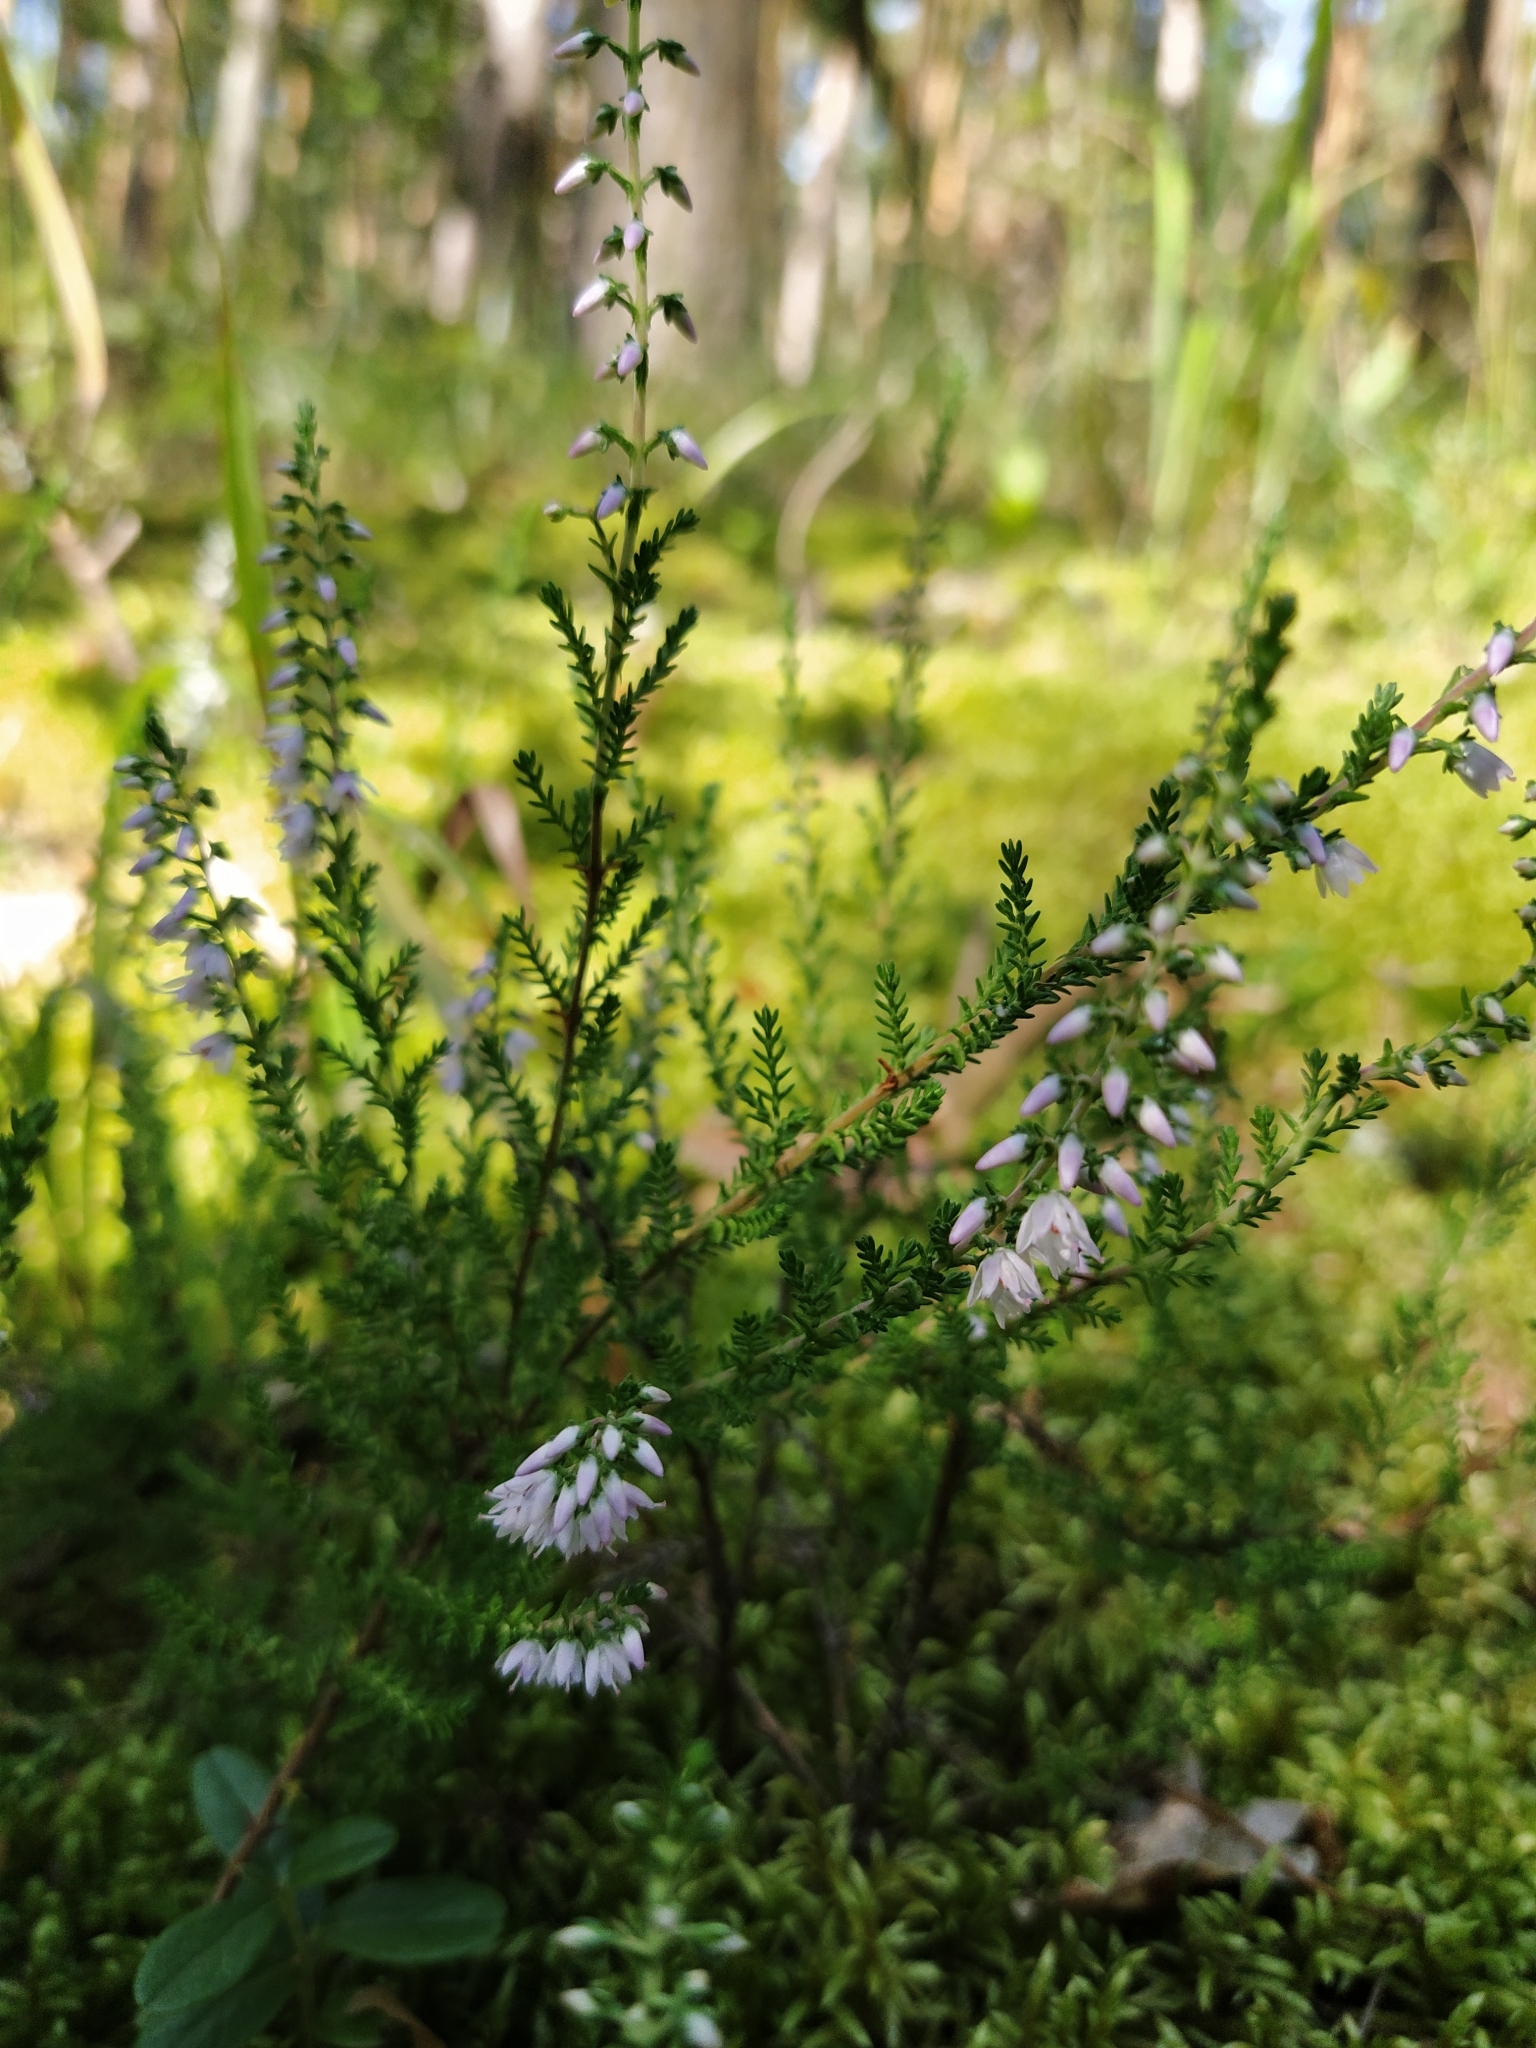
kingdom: Plantae
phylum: Tracheophyta
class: Magnoliopsida
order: Ericales
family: Ericaceae
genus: Calluna
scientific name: Calluna vulgaris
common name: Heather
